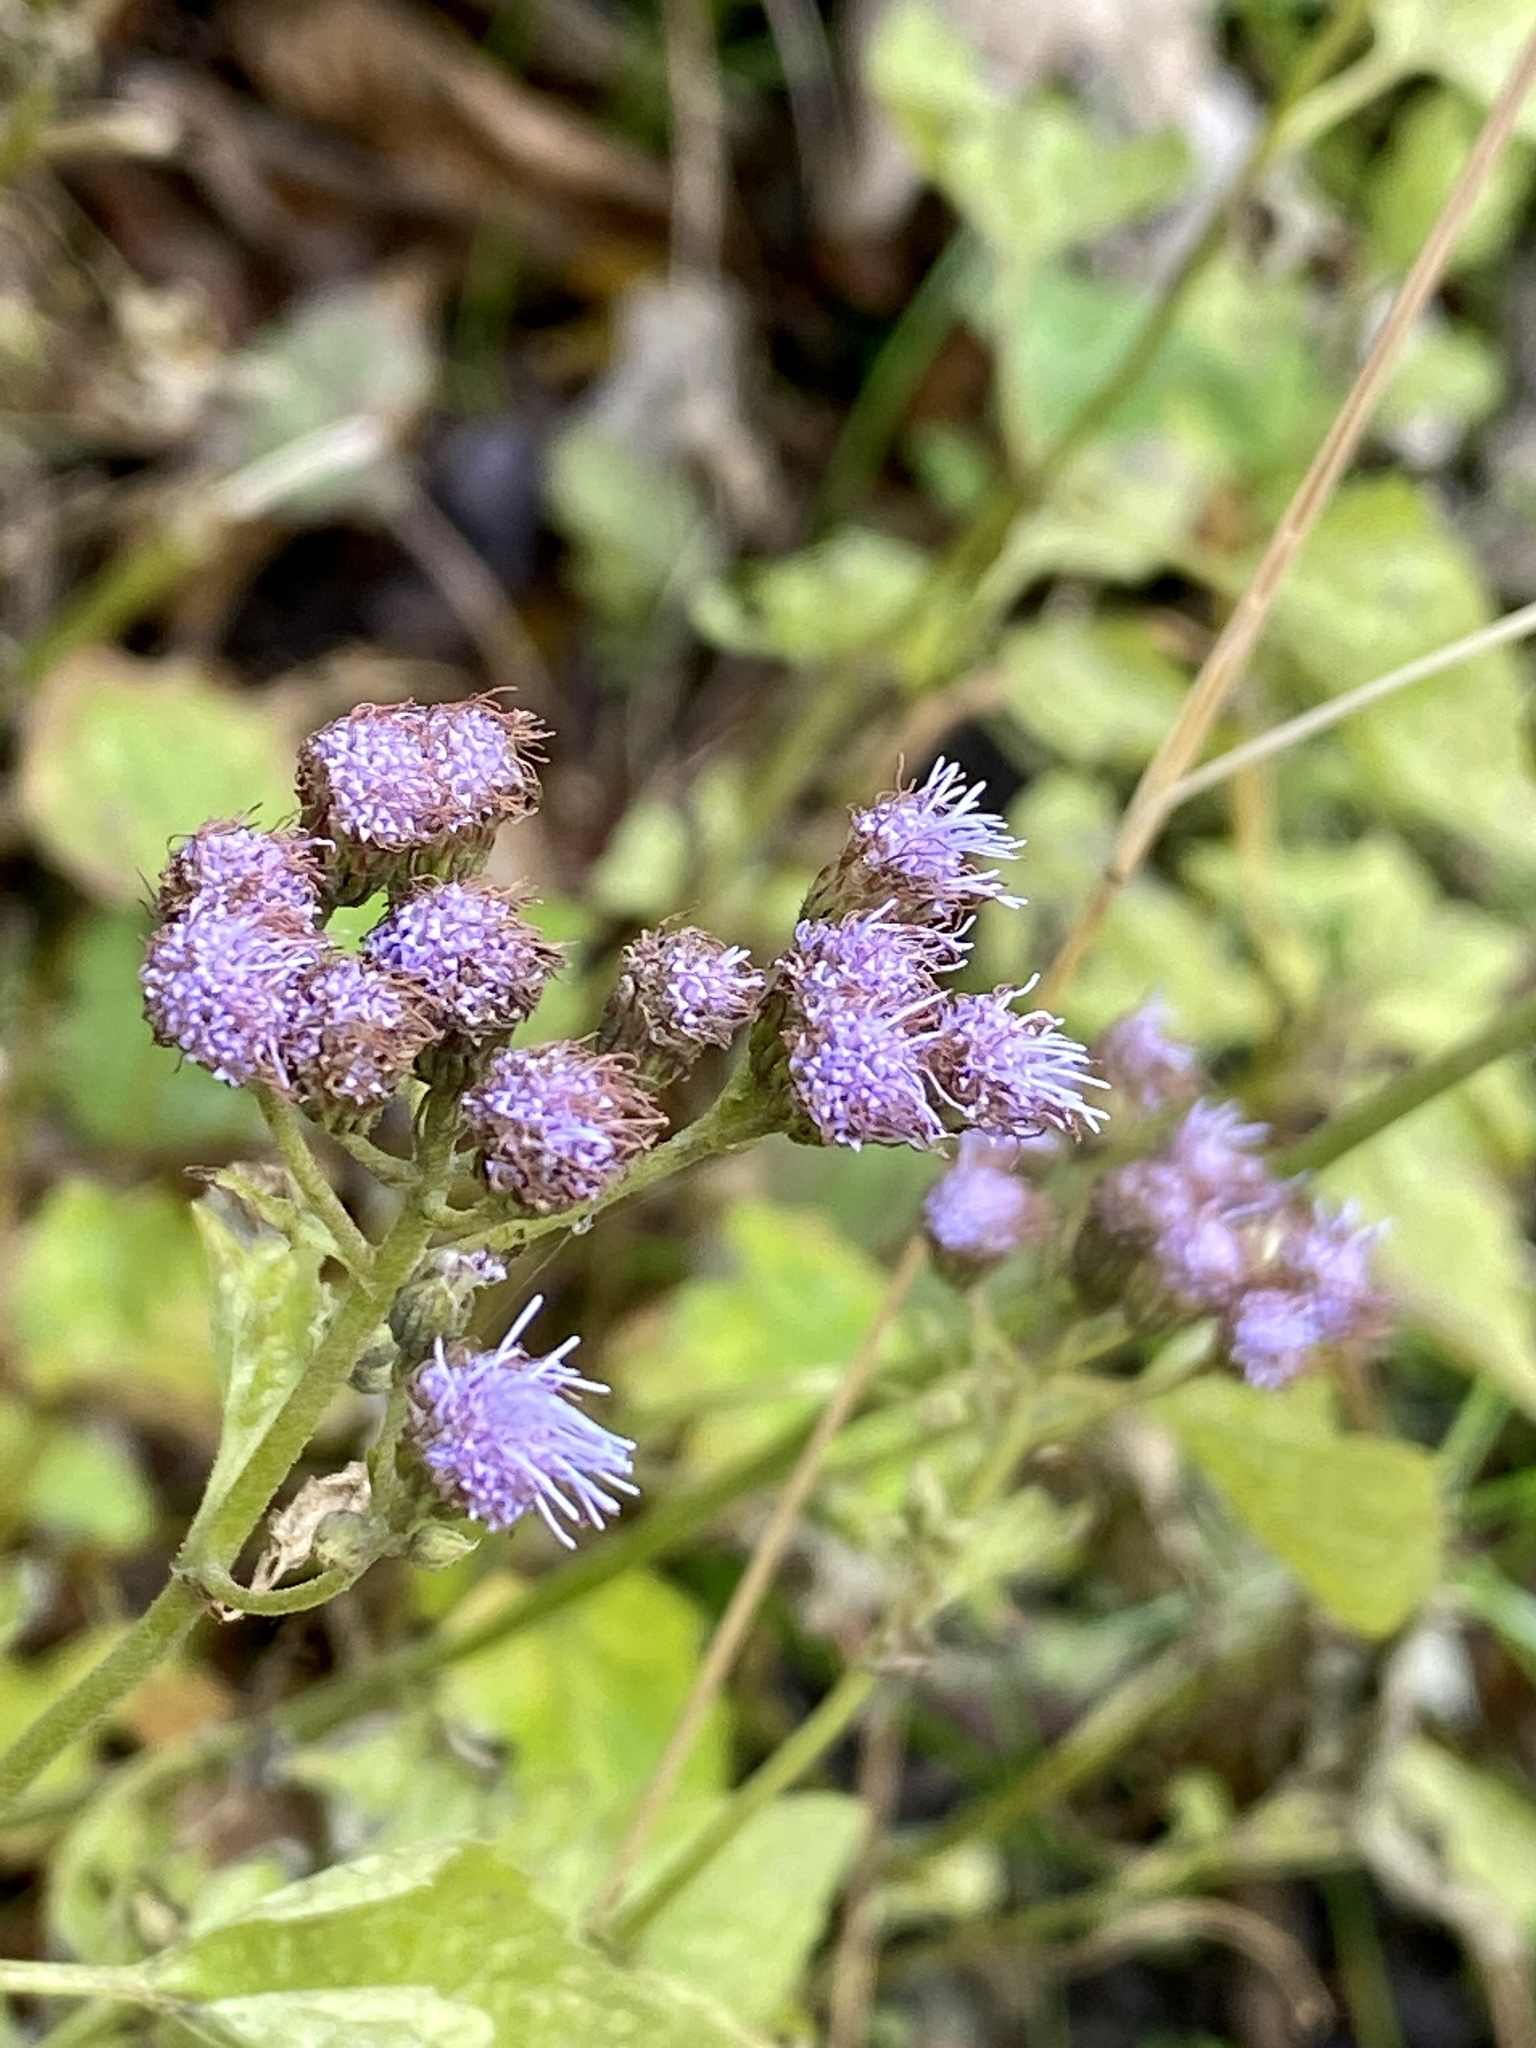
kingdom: Plantae
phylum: Tracheophyta
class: Magnoliopsida
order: Asterales
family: Asteraceae
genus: Conoclinium
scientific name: Conoclinium coelestinum
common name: Blue mistflower
